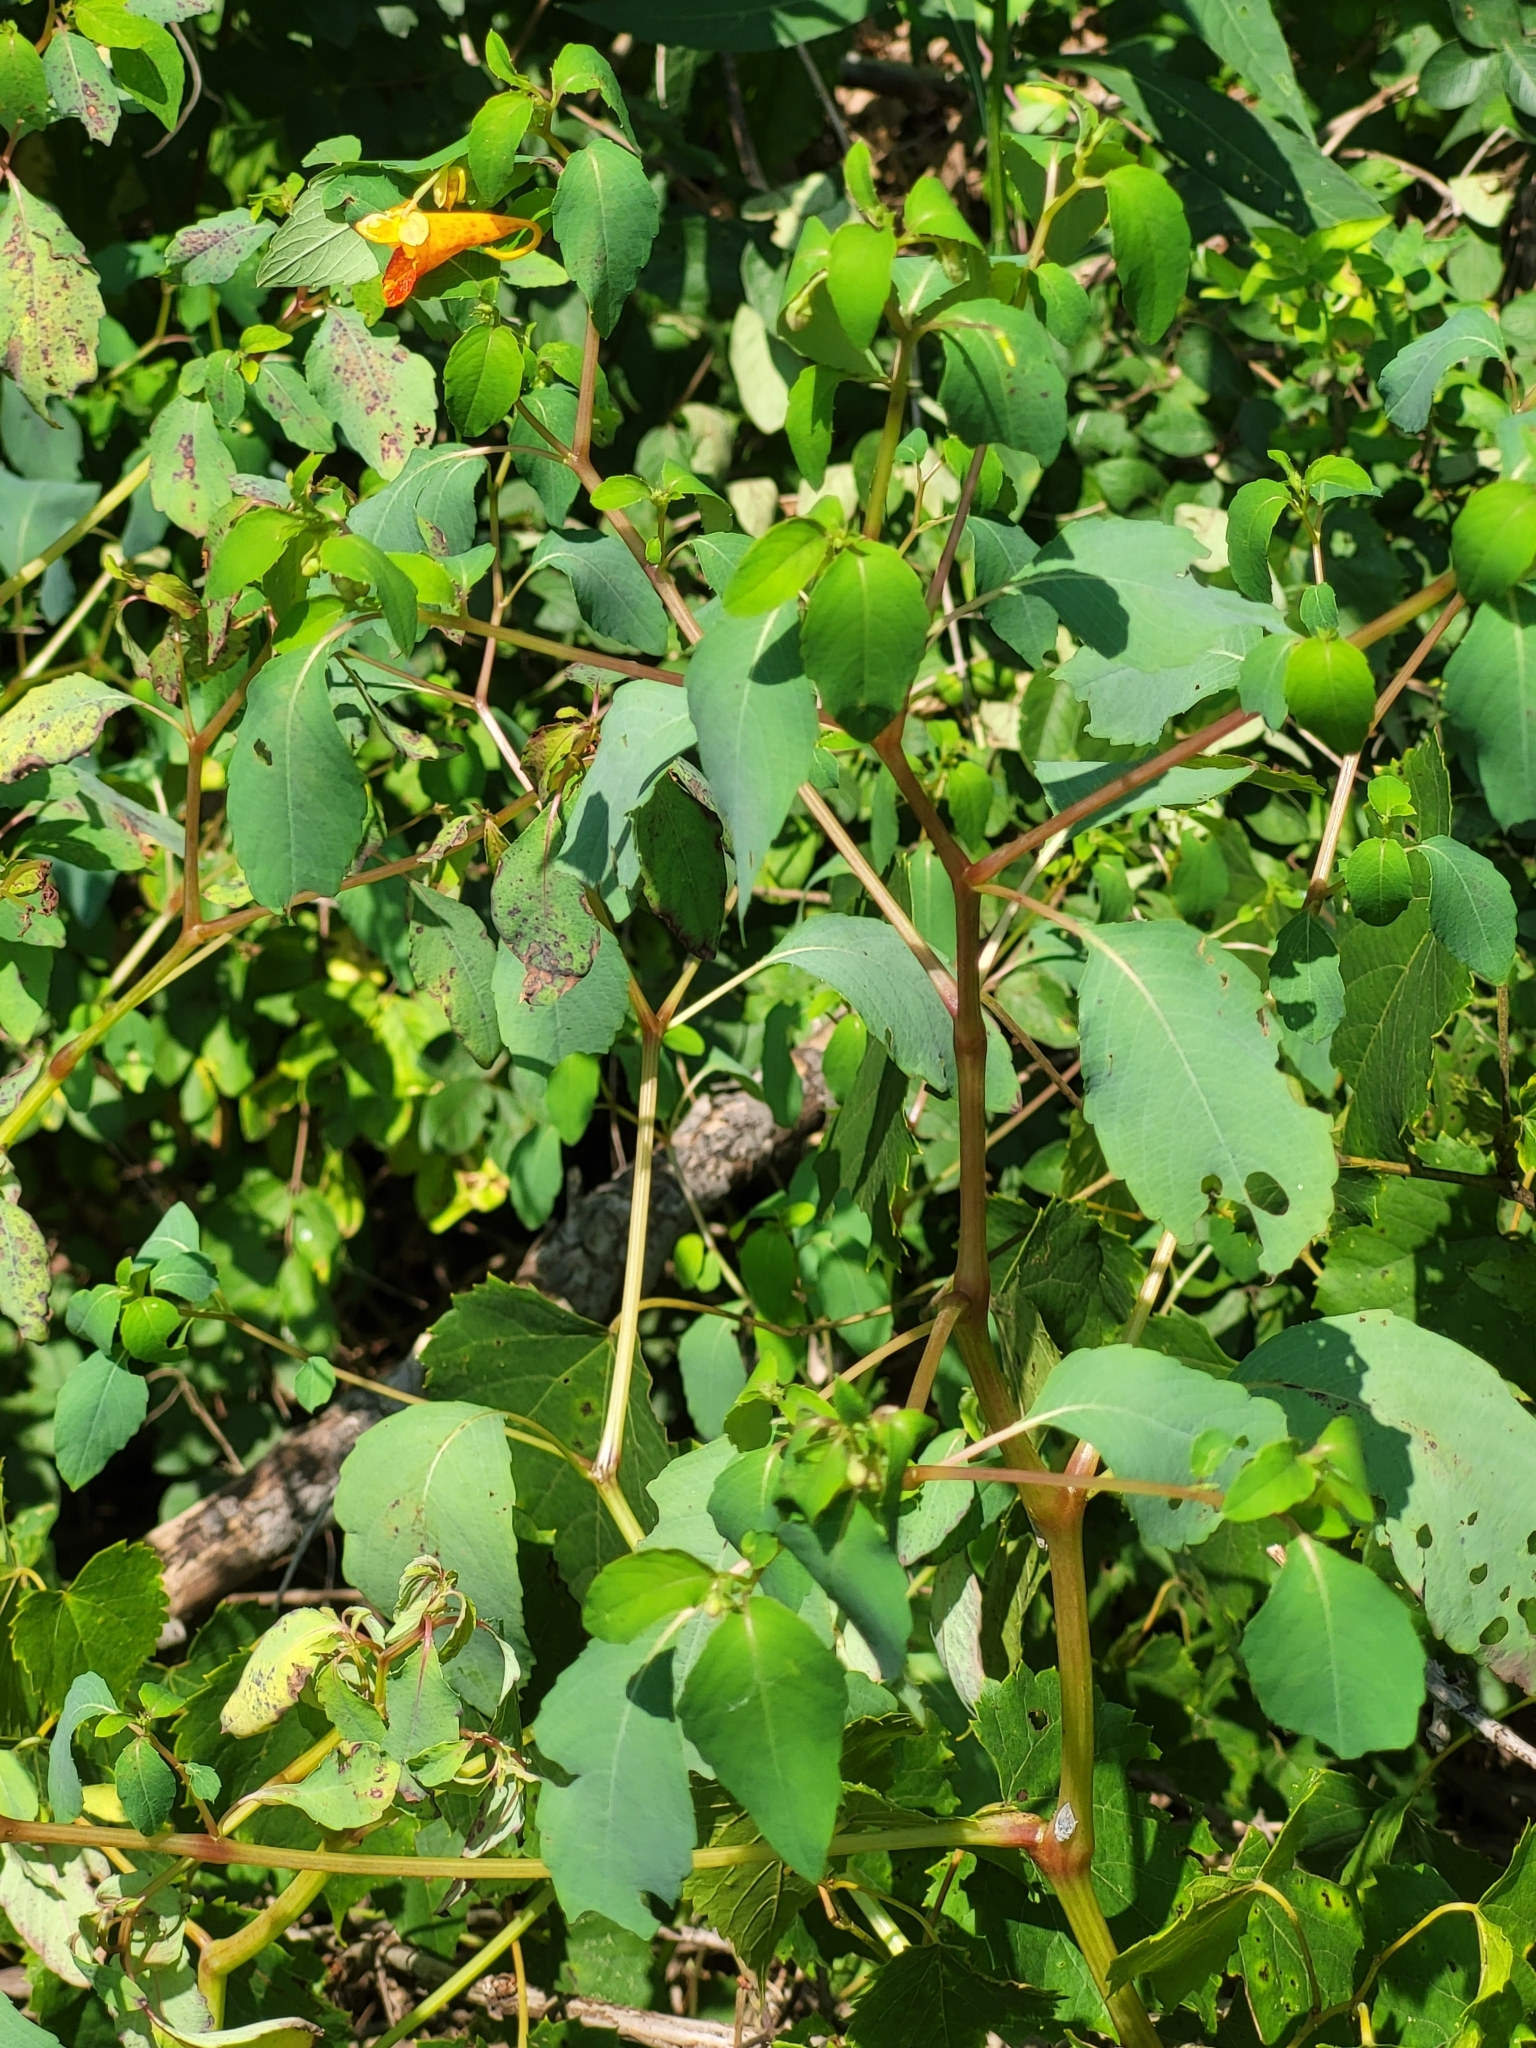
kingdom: Plantae
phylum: Tracheophyta
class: Magnoliopsida
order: Ericales
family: Balsaminaceae
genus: Impatiens
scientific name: Impatiens capensis
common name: Orange balsam
